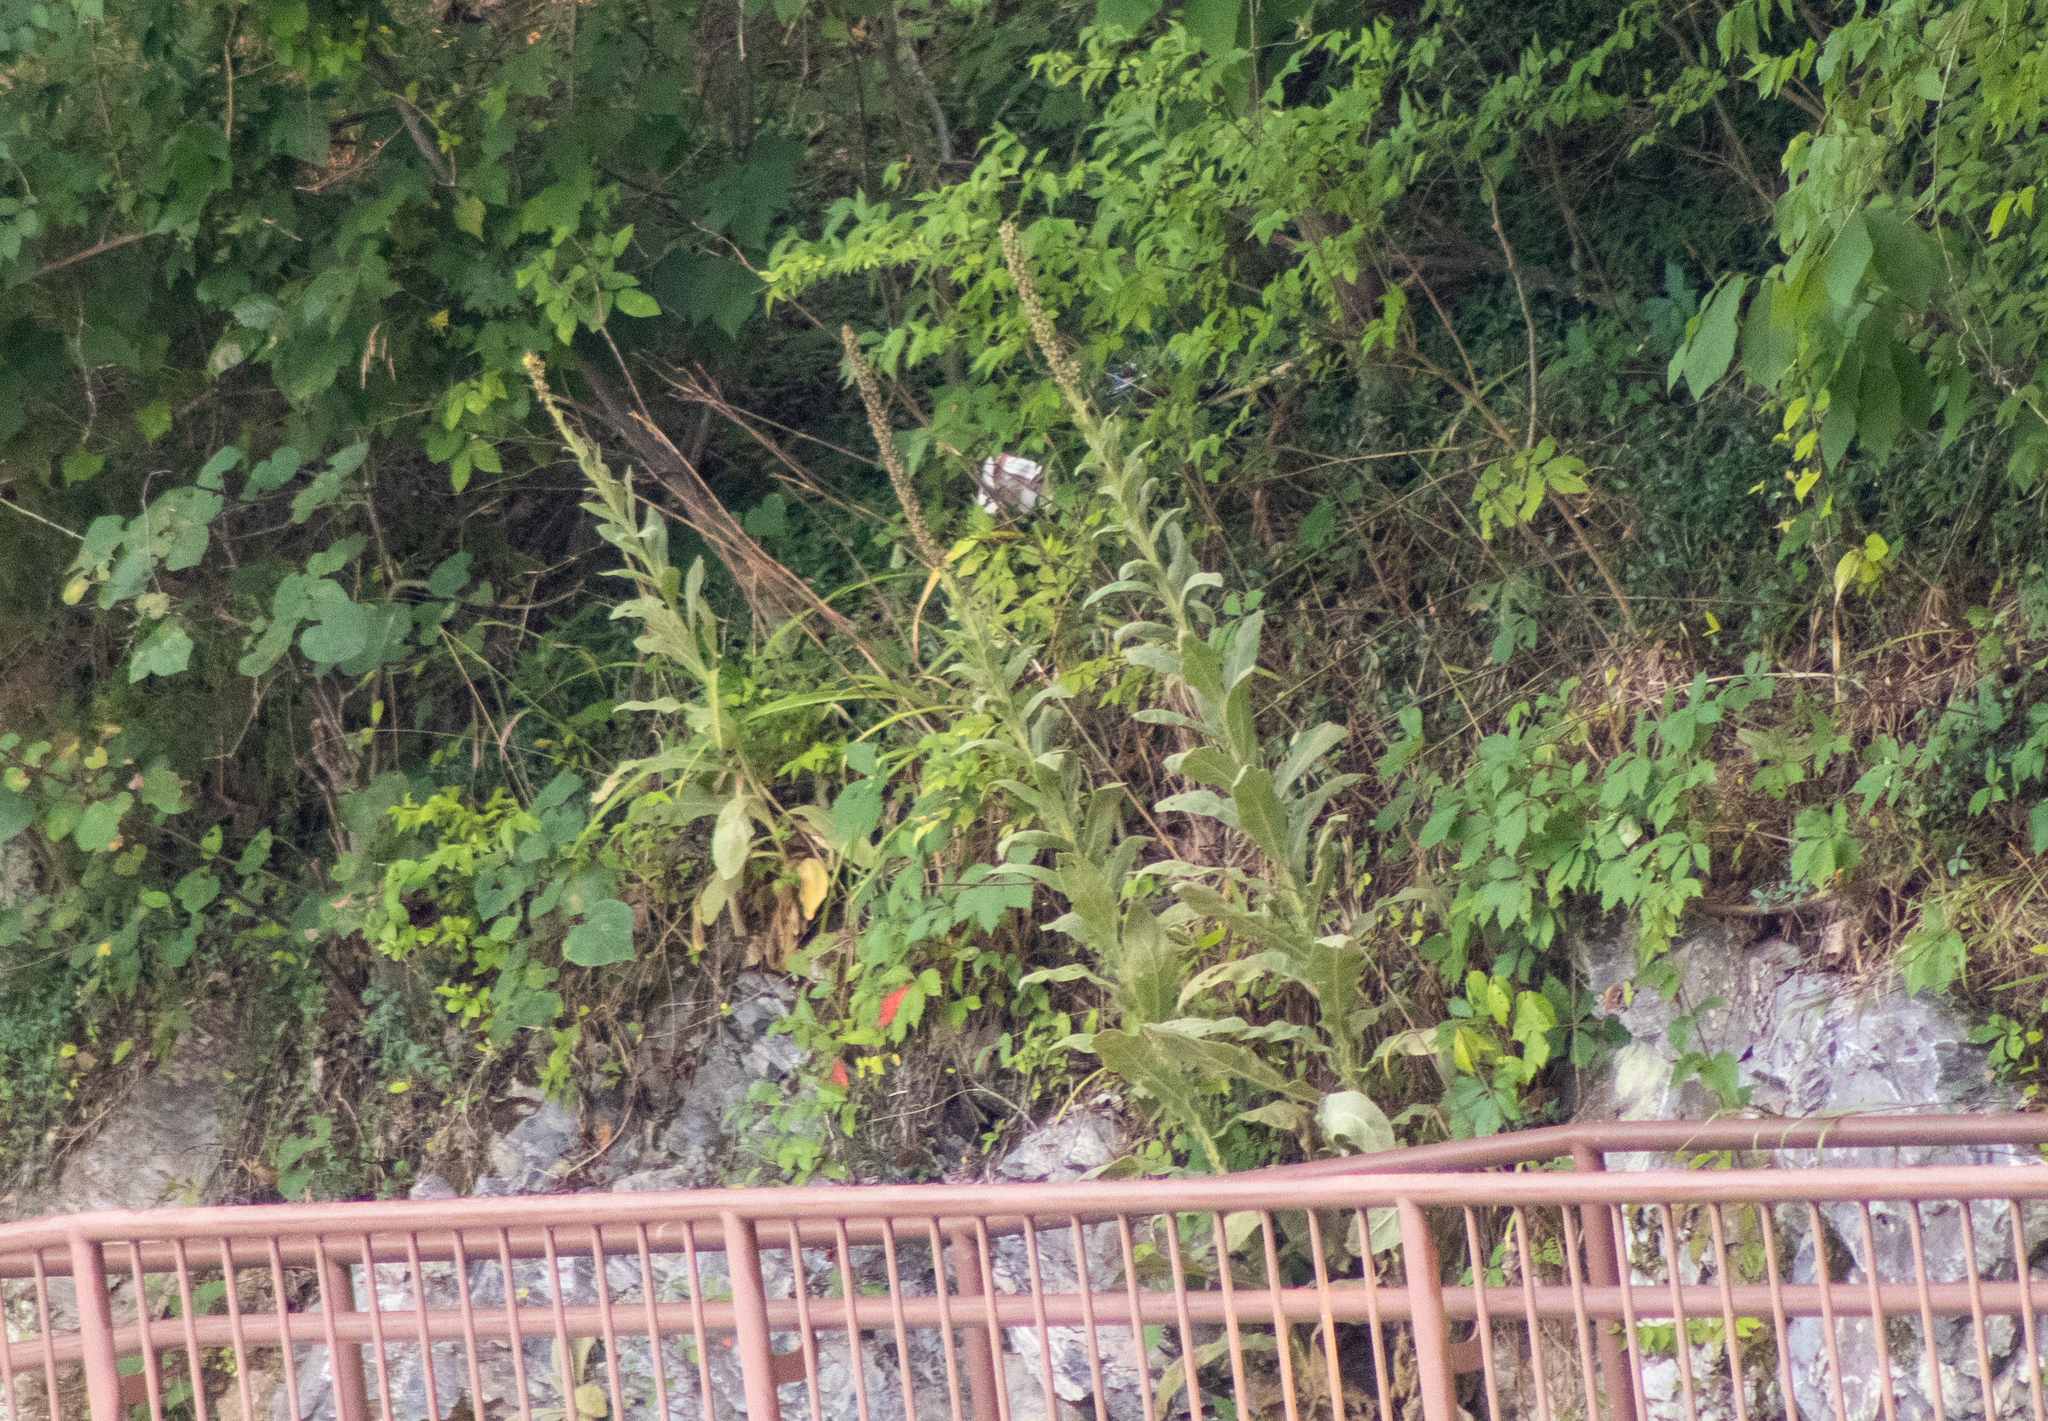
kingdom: Plantae
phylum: Tracheophyta
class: Magnoliopsida
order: Lamiales
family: Scrophulariaceae
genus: Verbascum
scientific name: Verbascum thapsus
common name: Common mullein
